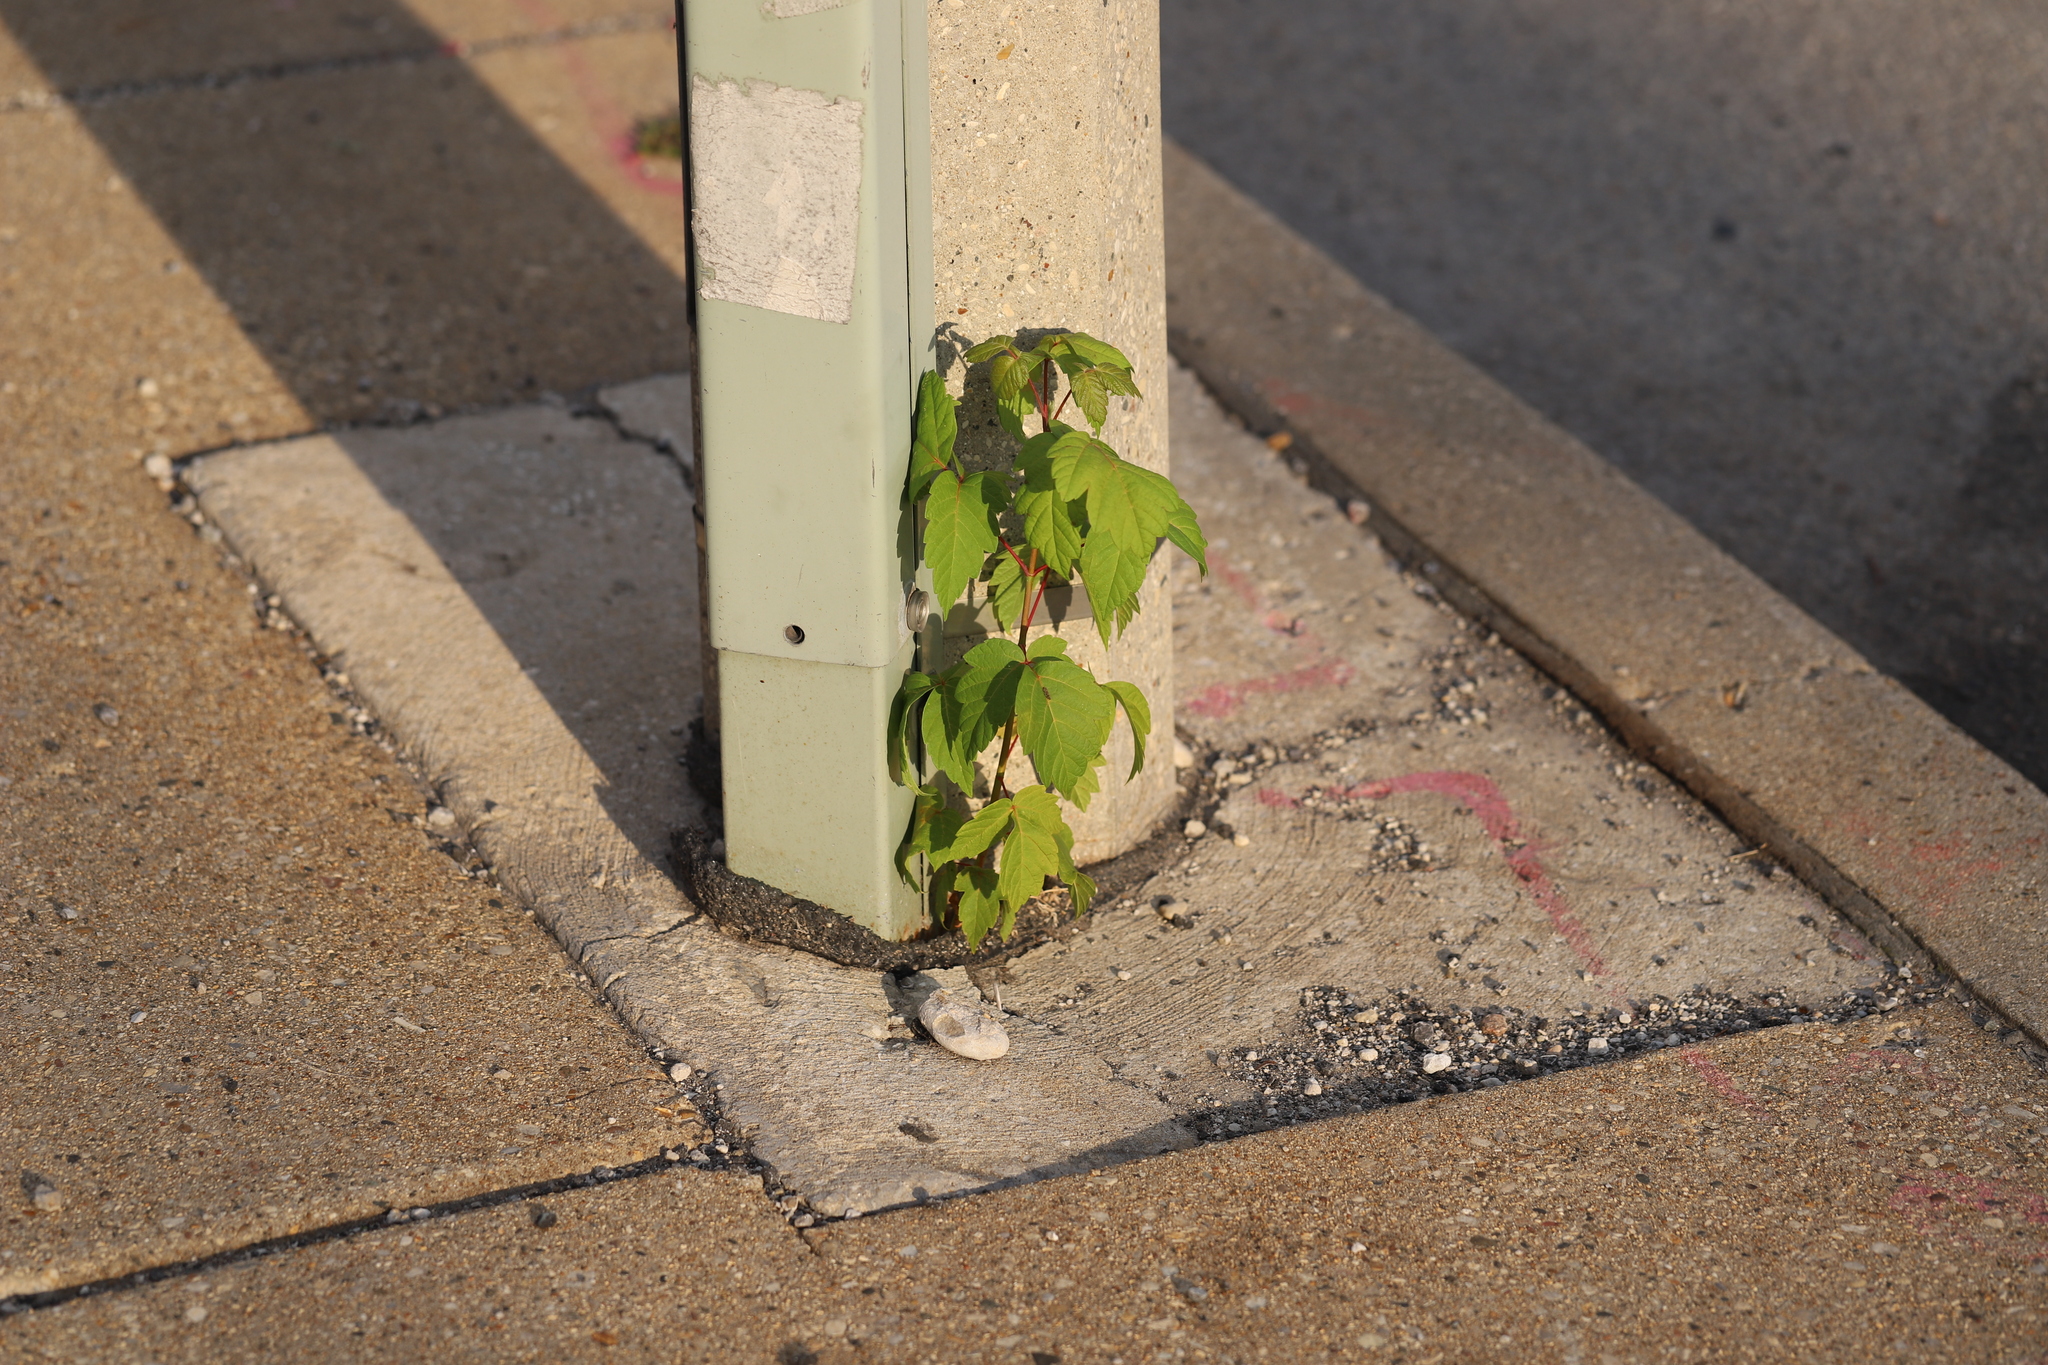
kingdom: Plantae
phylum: Tracheophyta
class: Magnoliopsida
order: Sapindales
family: Sapindaceae
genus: Acer
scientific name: Acer negundo
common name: Ashleaf maple
